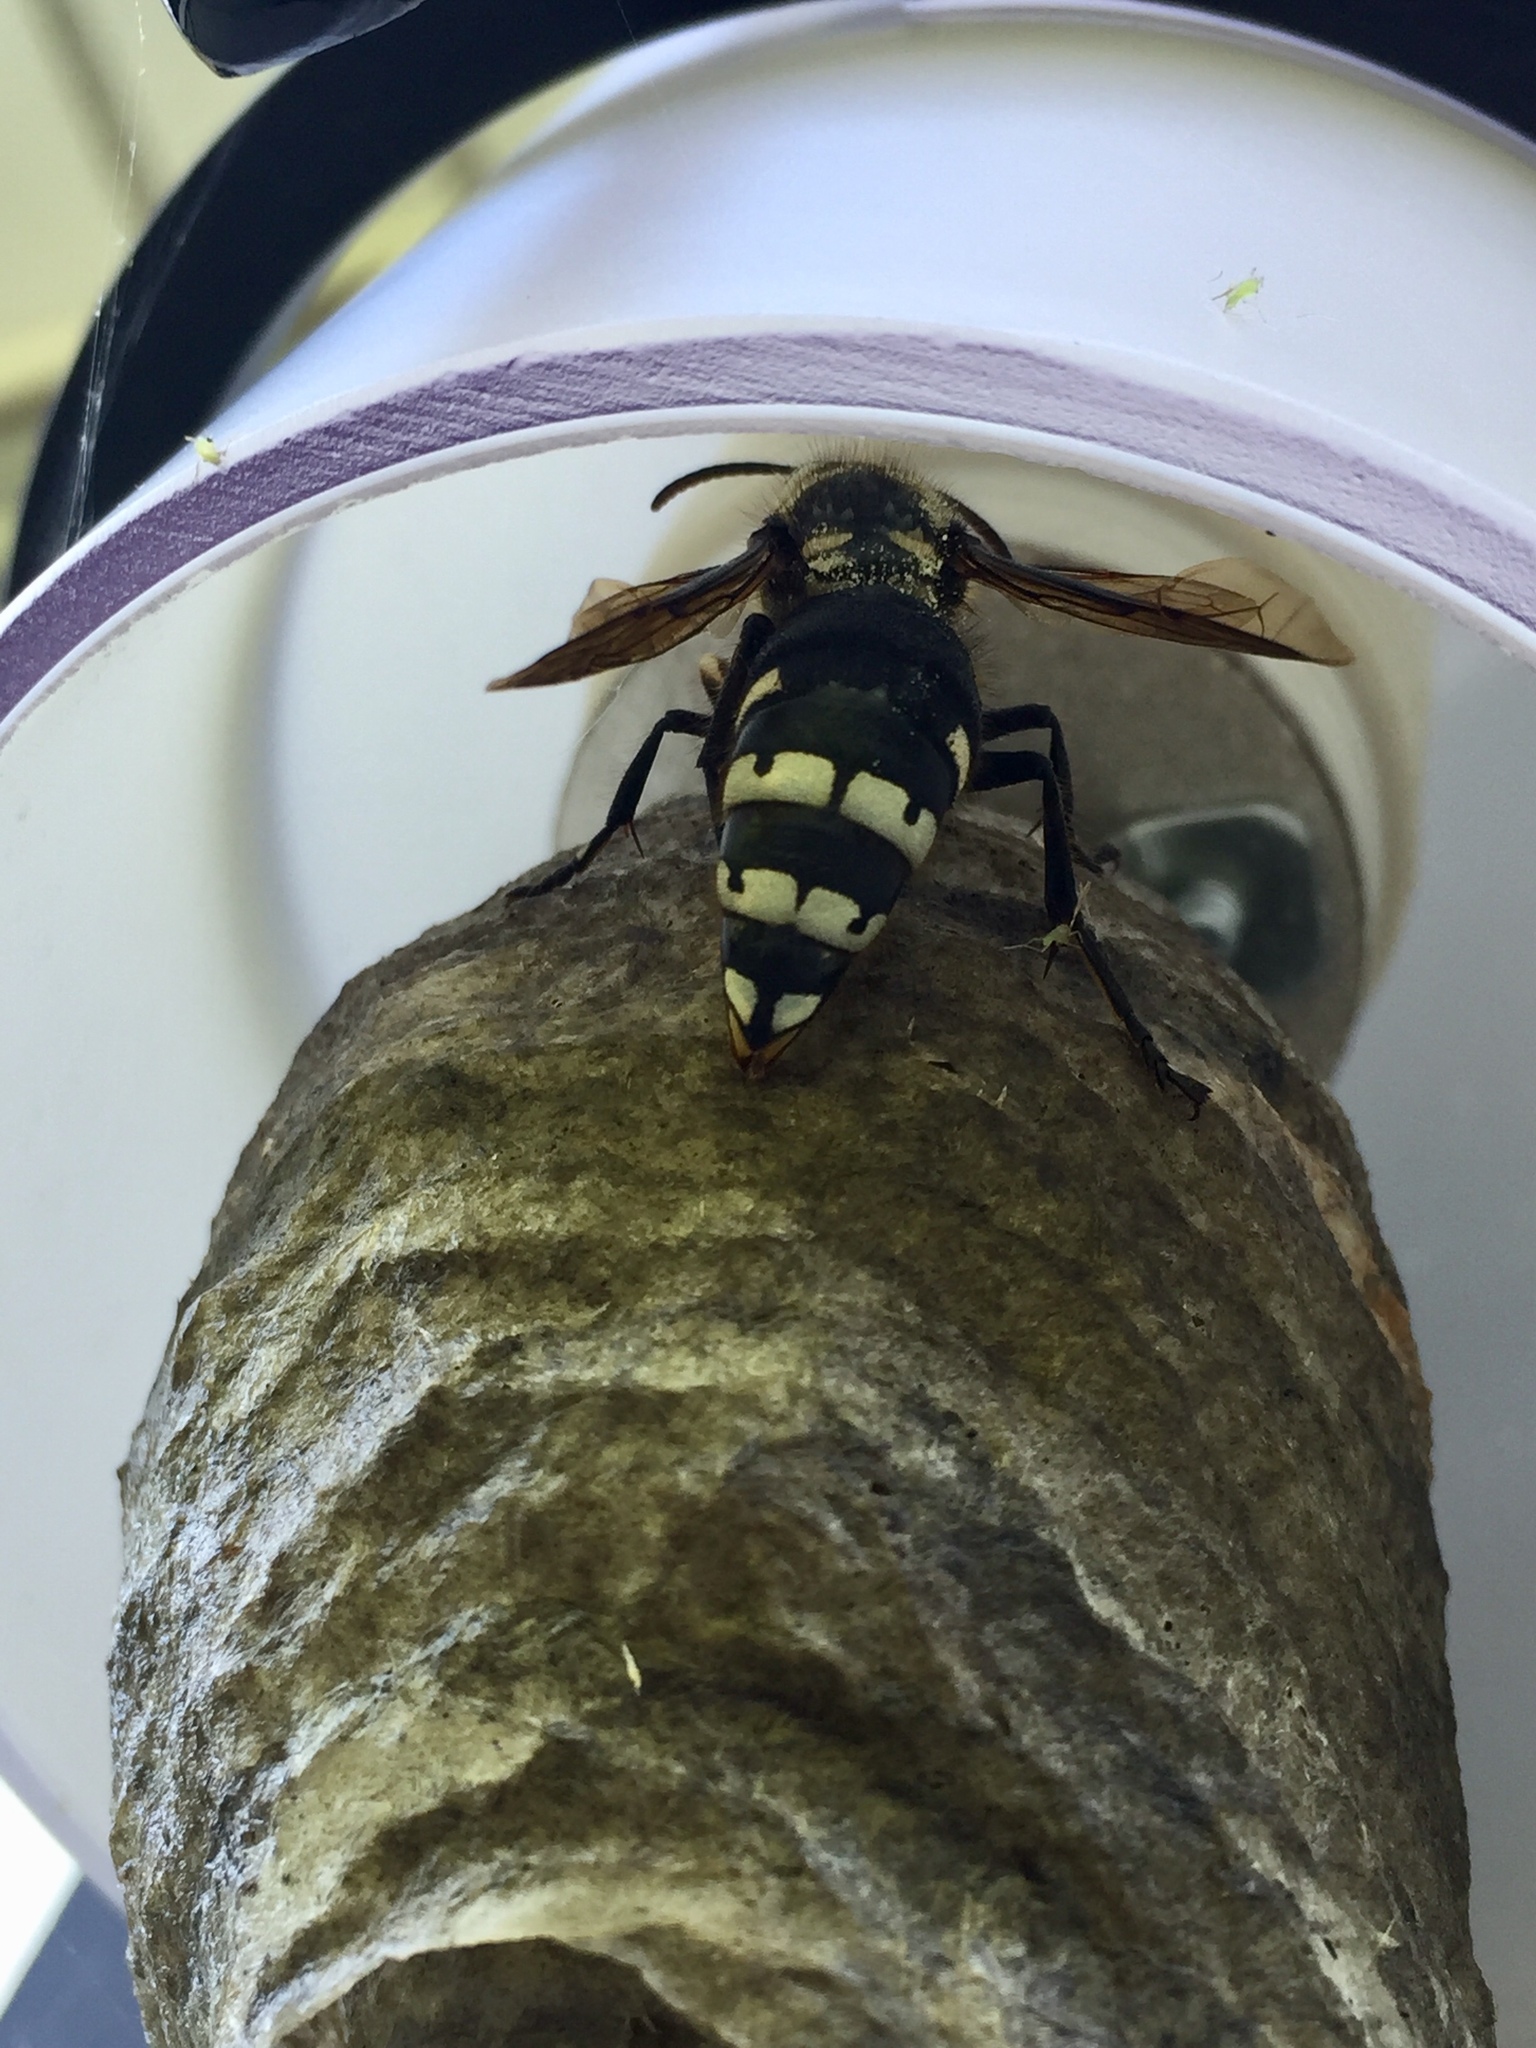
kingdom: Animalia
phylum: Arthropoda
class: Insecta
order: Hymenoptera
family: Vespidae
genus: Dolichovespula
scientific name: Dolichovespula maculata
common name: Bald-faced hornet
